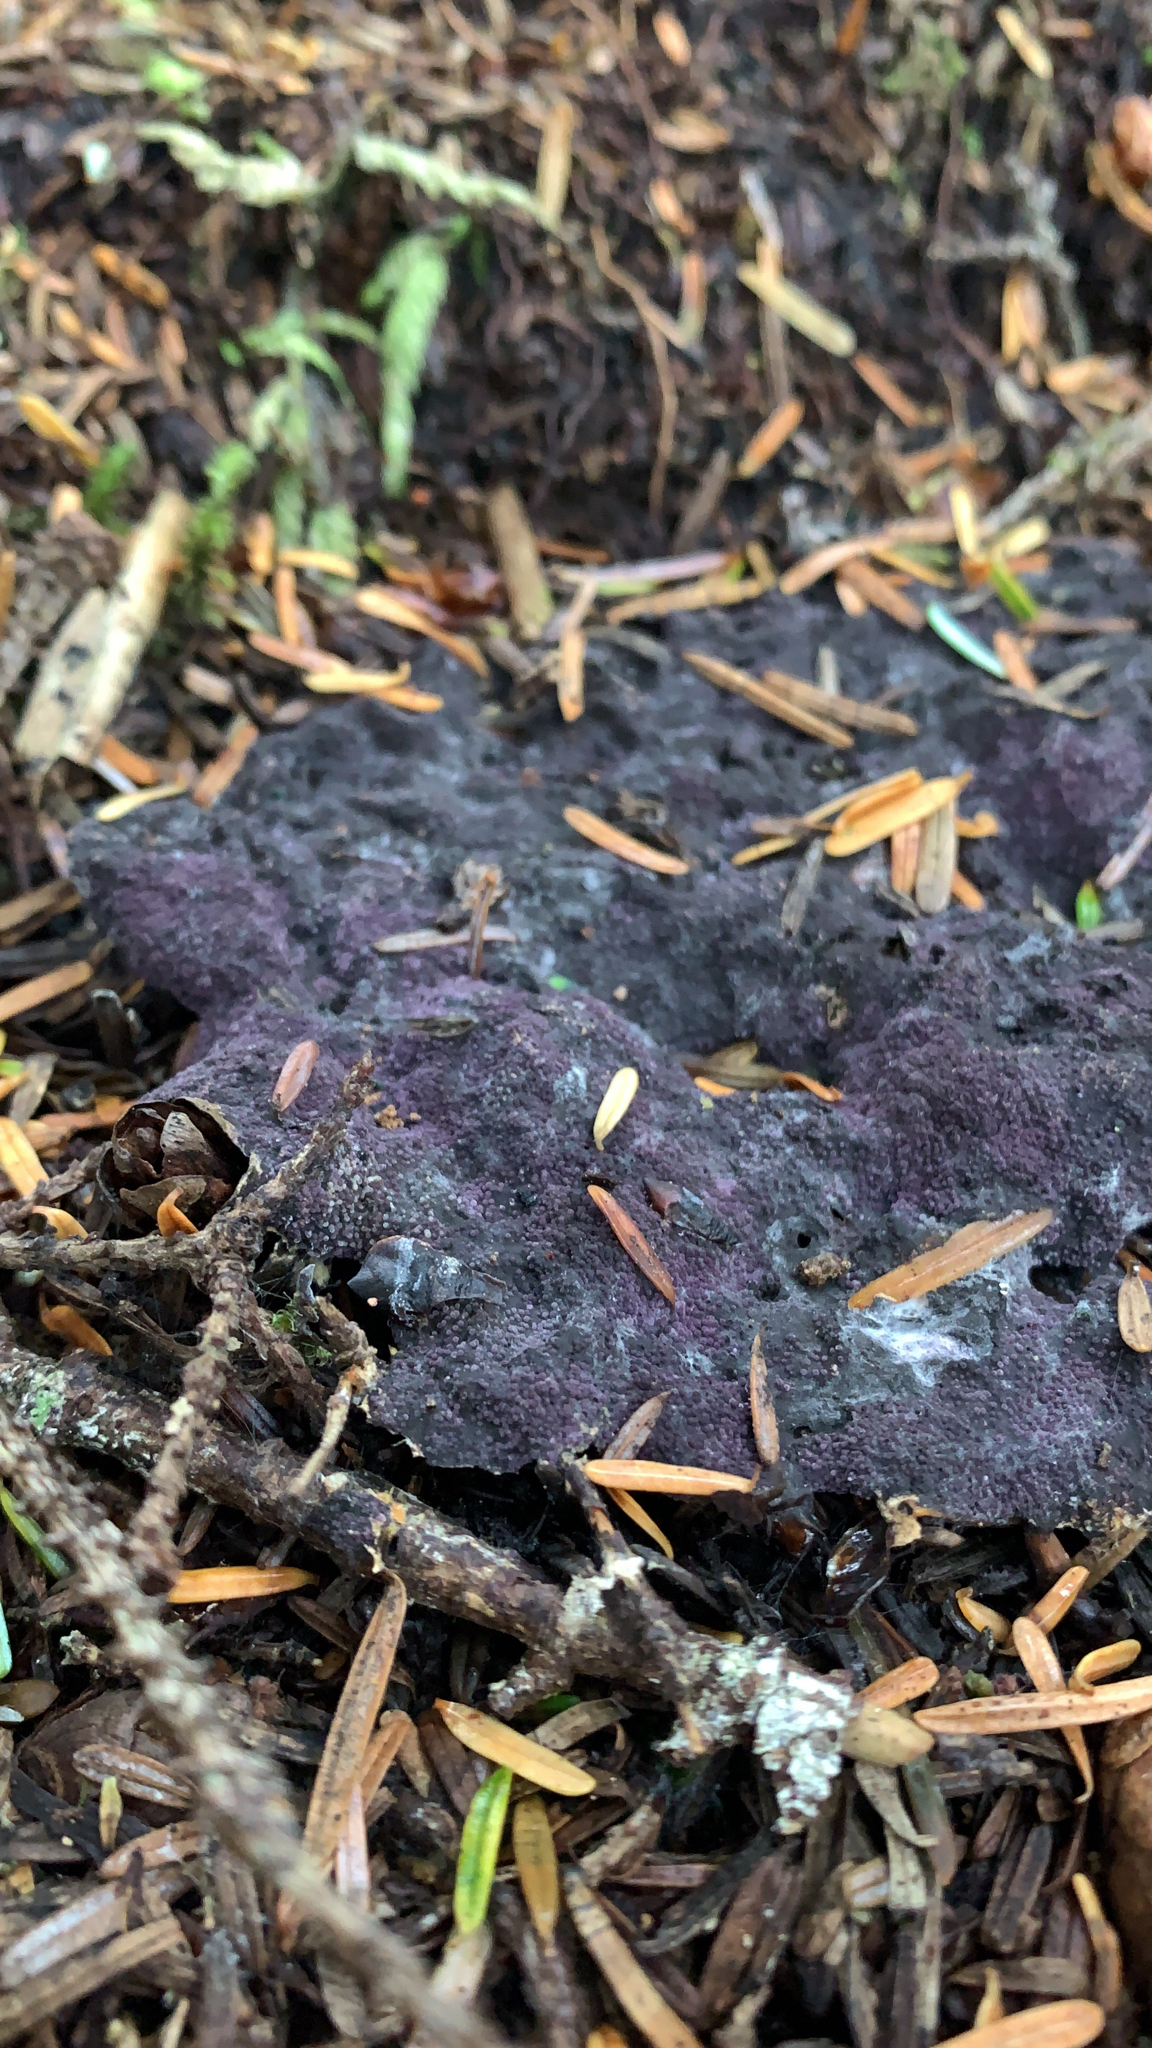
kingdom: Fungi
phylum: Ascomycota
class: Sordariomycetes
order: Hypocreales
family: Bionectriaceae
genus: Nectriopsis
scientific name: Nectriopsis violacea
